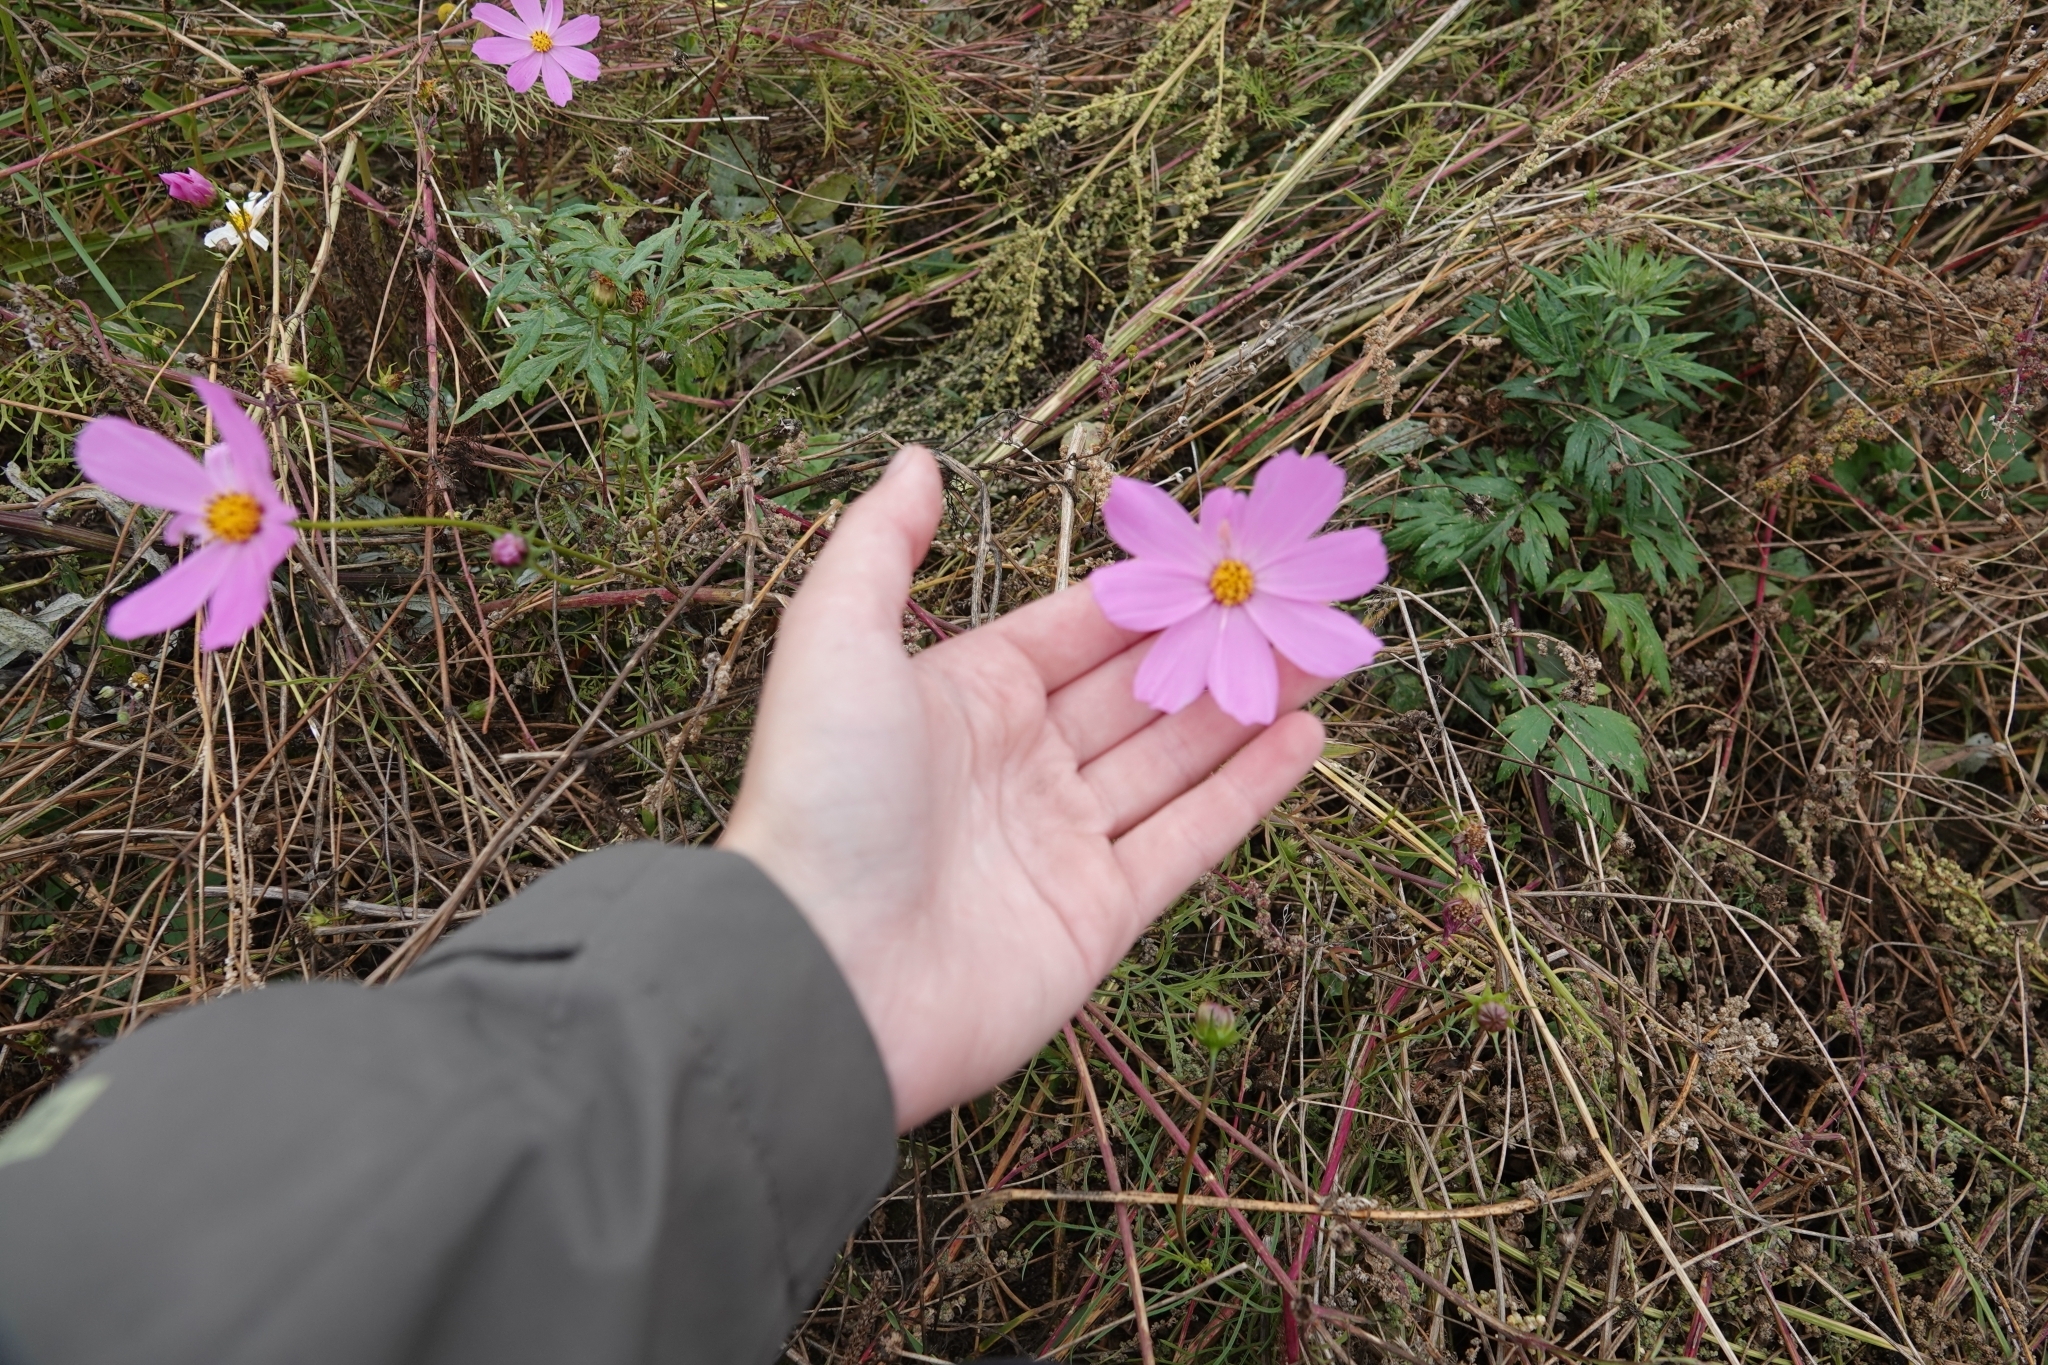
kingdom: Plantae
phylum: Tracheophyta
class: Magnoliopsida
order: Asterales
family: Asteraceae
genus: Cosmos
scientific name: Cosmos bipinnatus
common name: Garden cosmos
